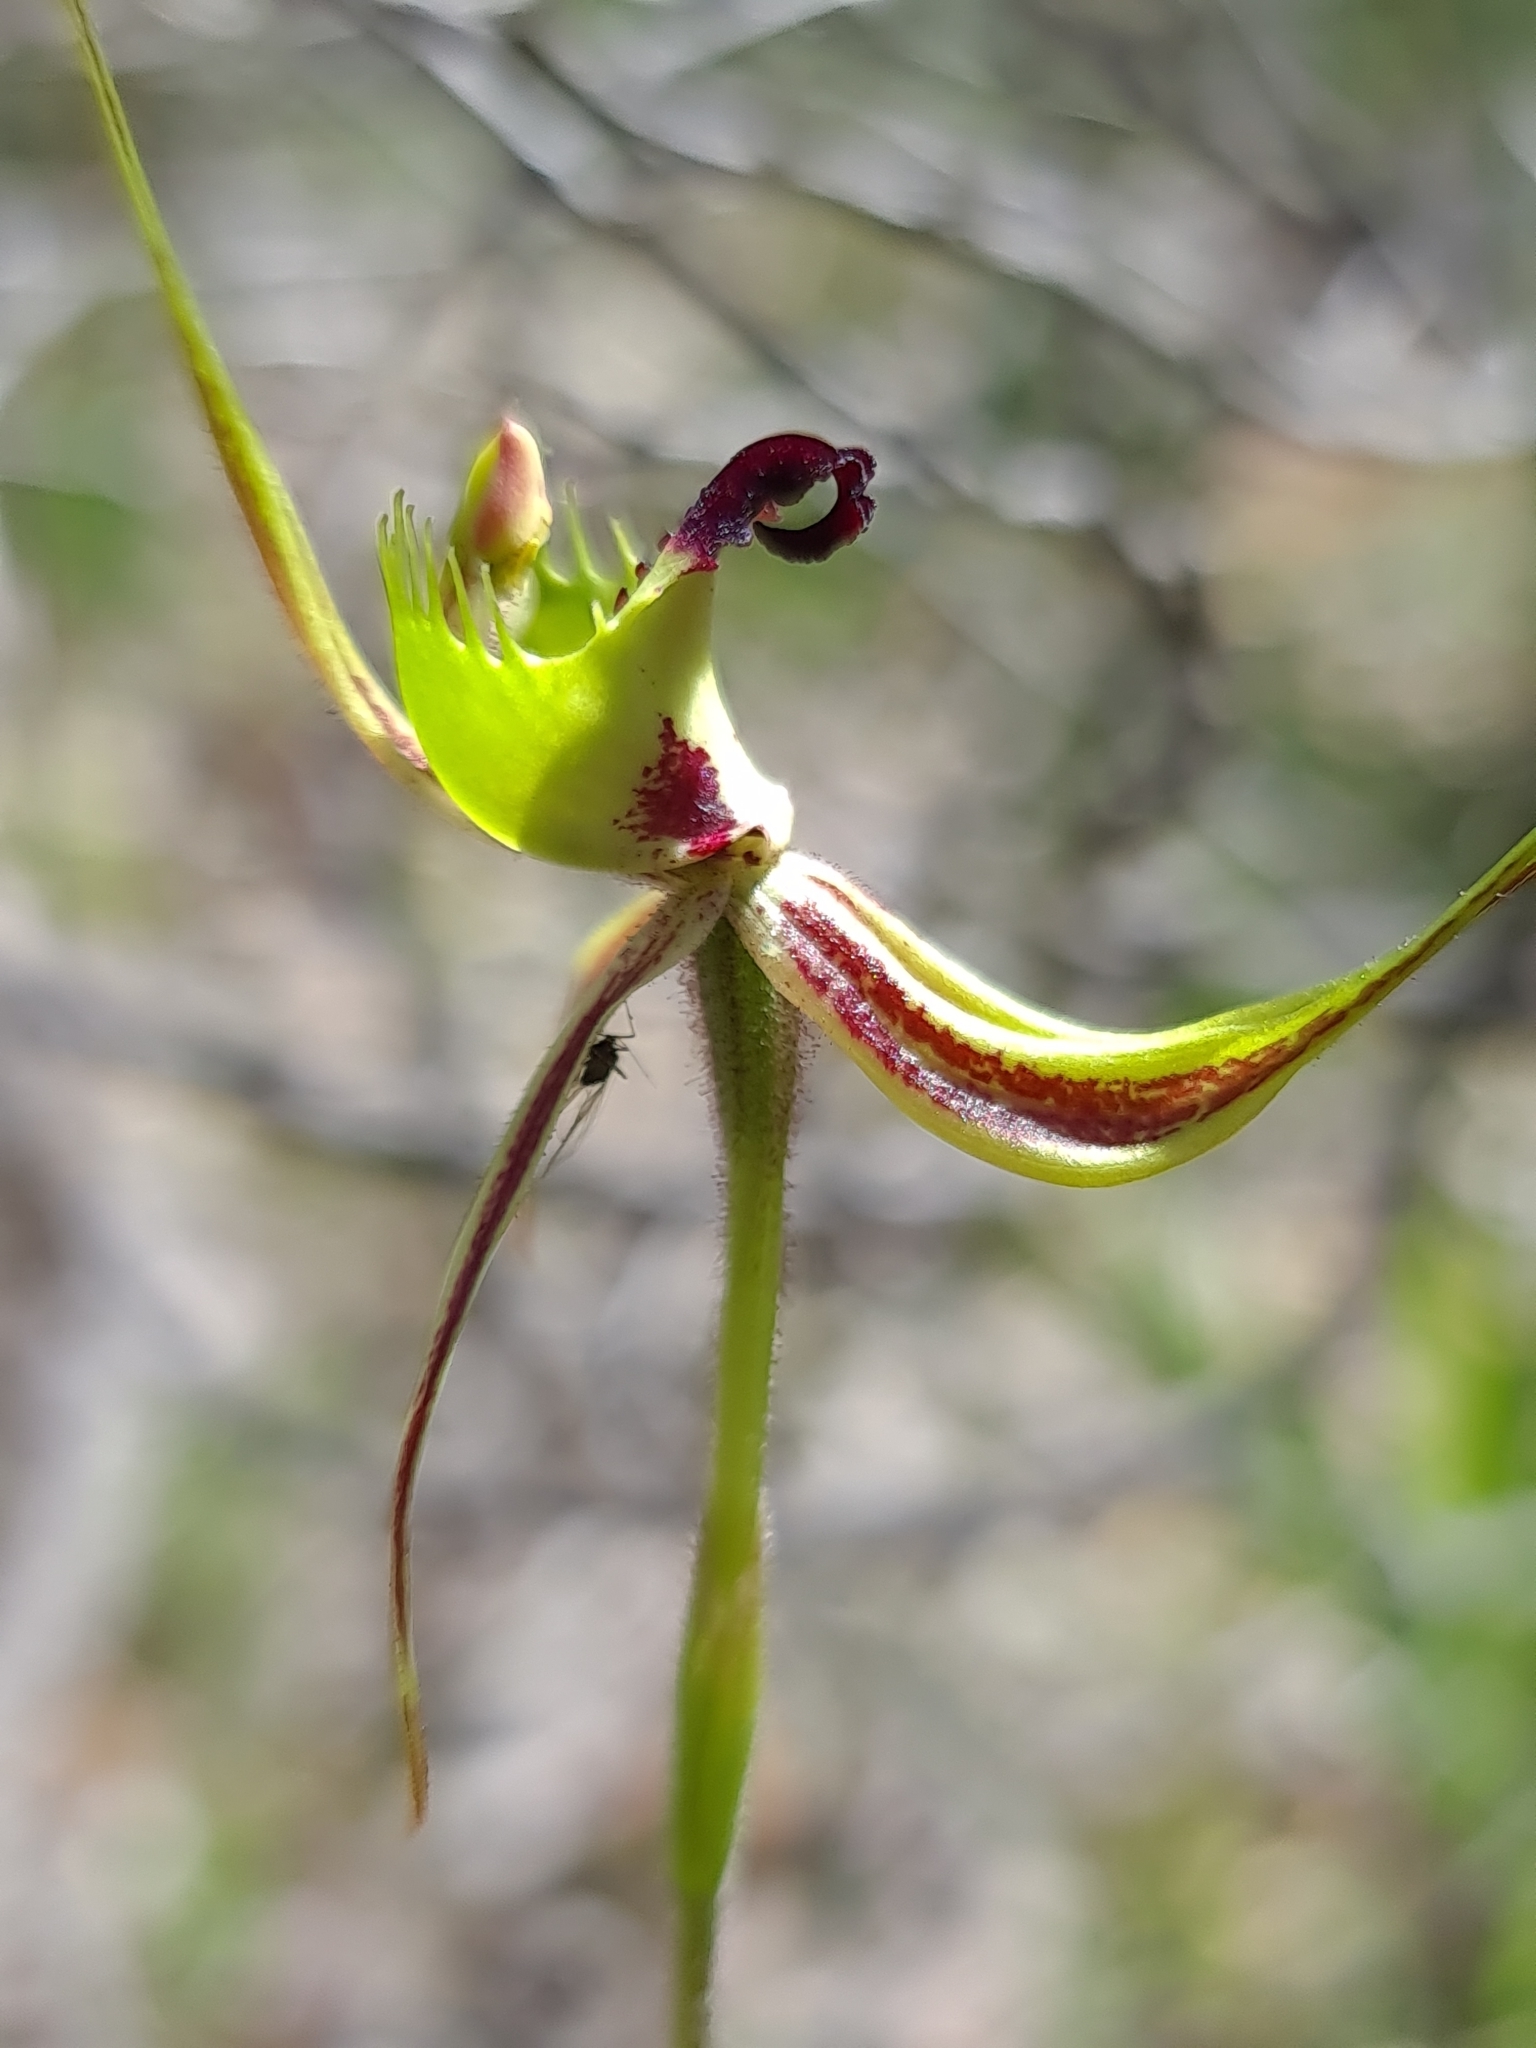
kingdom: Plantae
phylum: Tracheophyta
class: Liliopsida
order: Asparagales
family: Orchidaceae
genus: Caladenia
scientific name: Caladenia attingens
